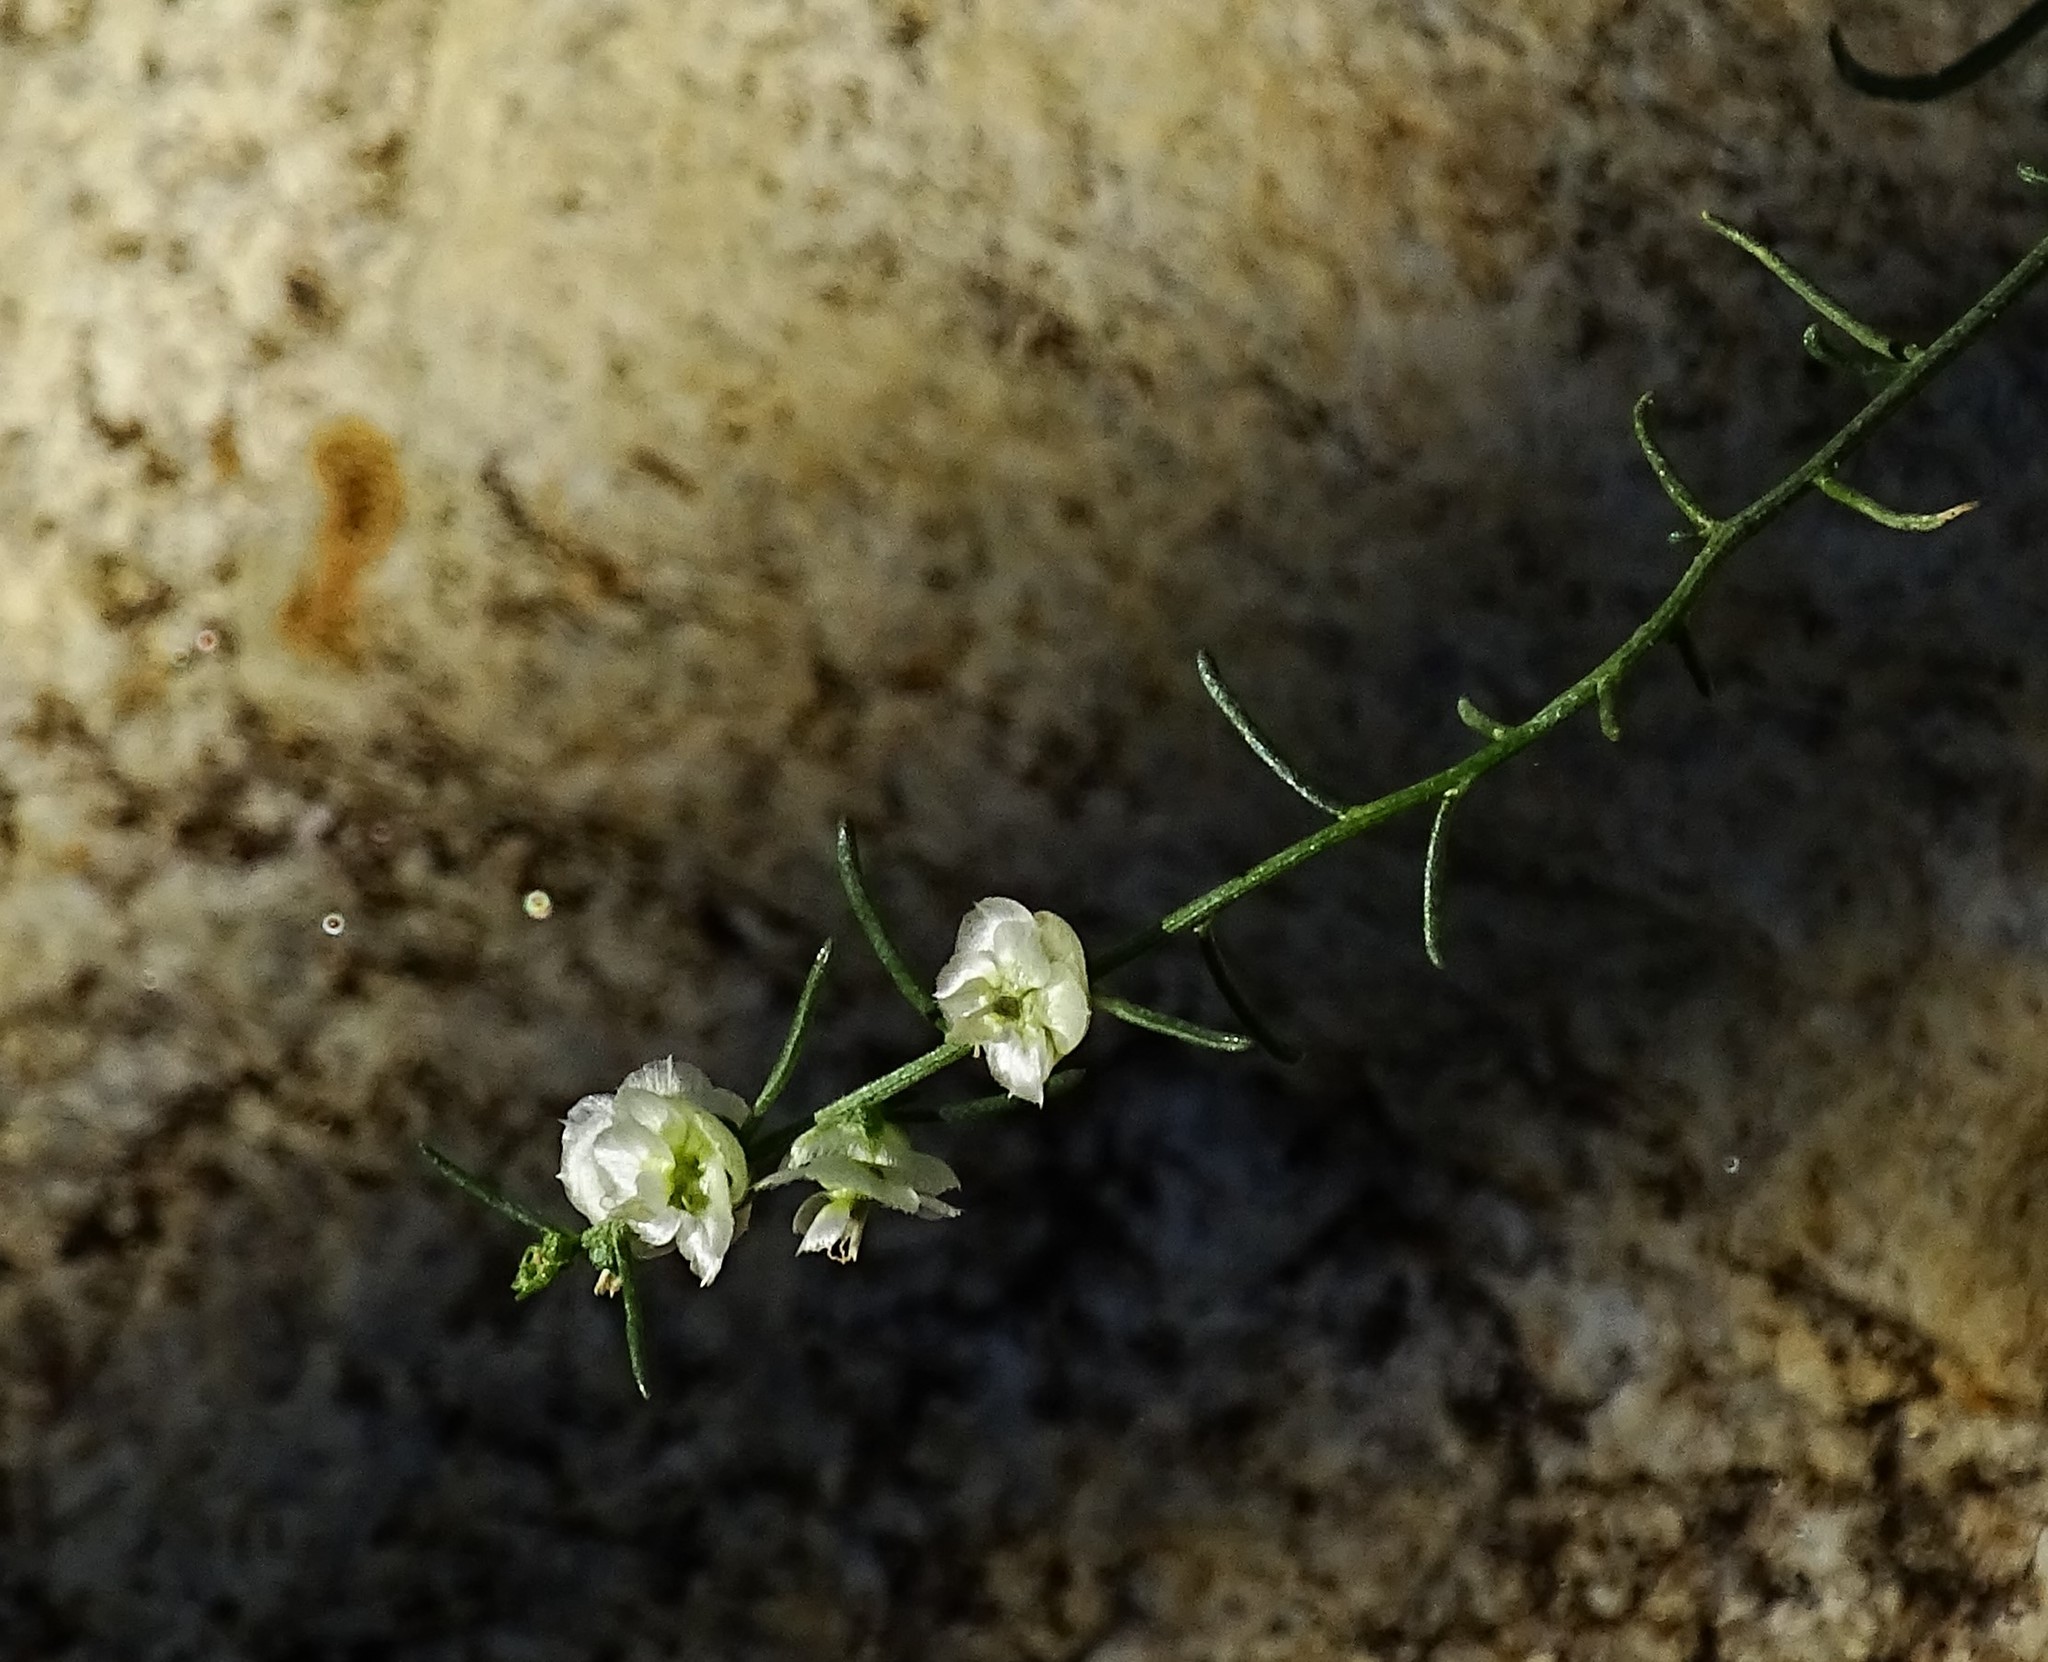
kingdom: Plantae
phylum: Tracheophyta
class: Magnoliopsida
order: Asterales
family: Asteraceae
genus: Ambrosia
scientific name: Ambrosia salsola
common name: Burrobrush
